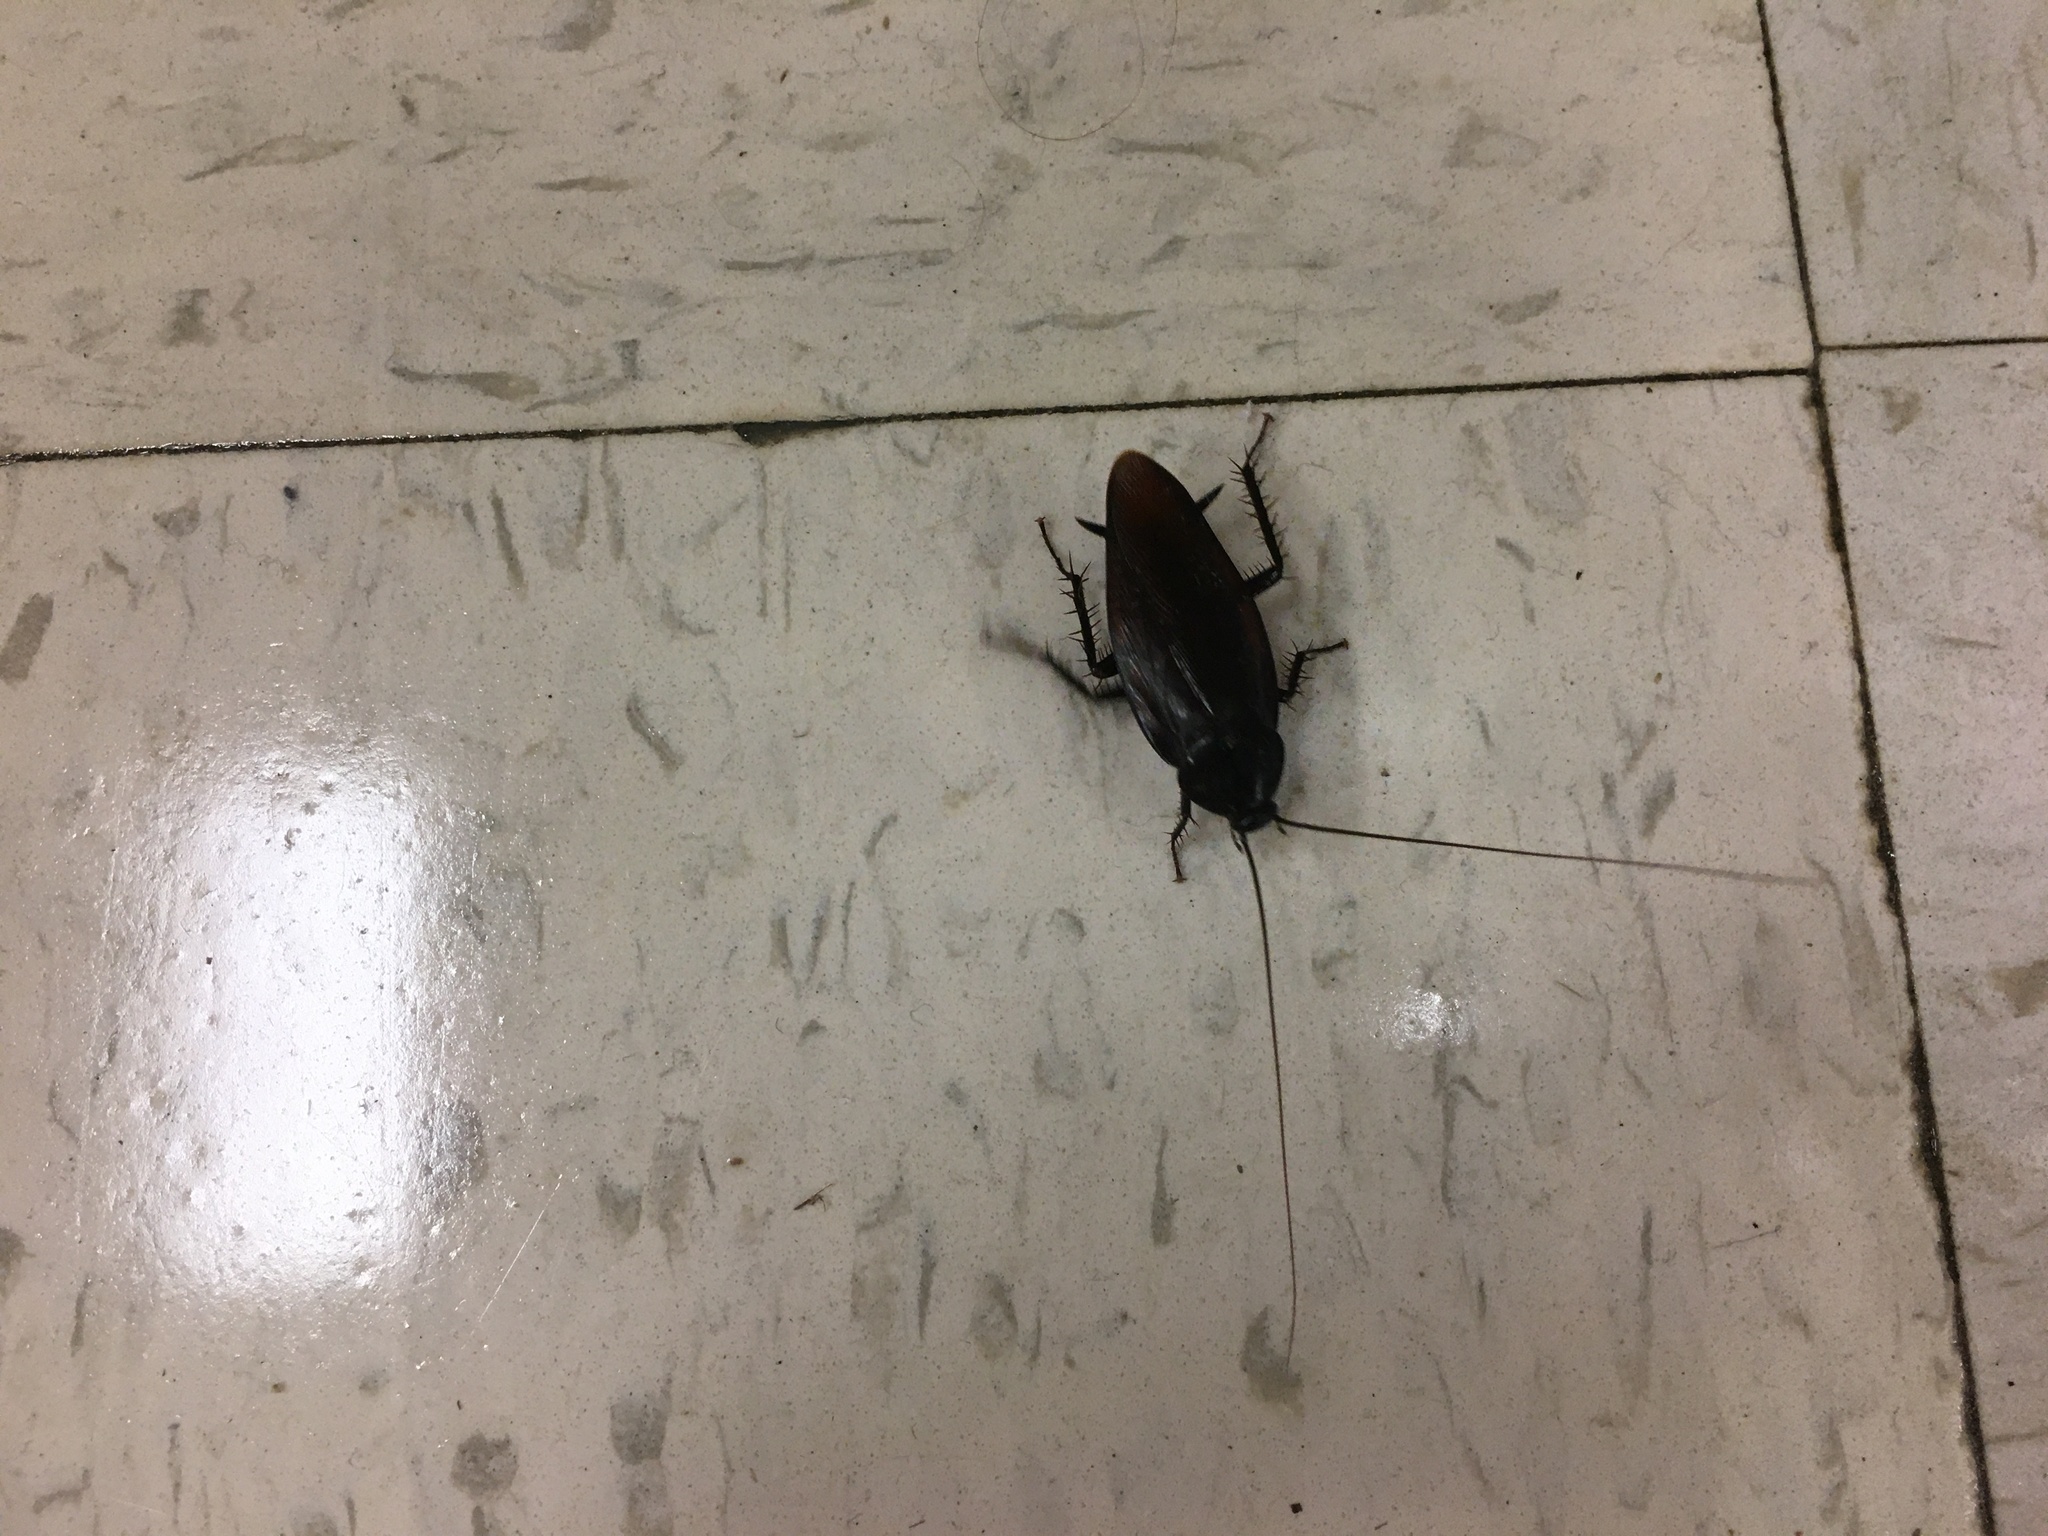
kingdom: Animalia
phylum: Arthropoda
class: Insecta
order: Blattodea
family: Blattidae
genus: Periplaneta
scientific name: Periplaneta fuliginosa
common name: Smokeybrown cockroad
